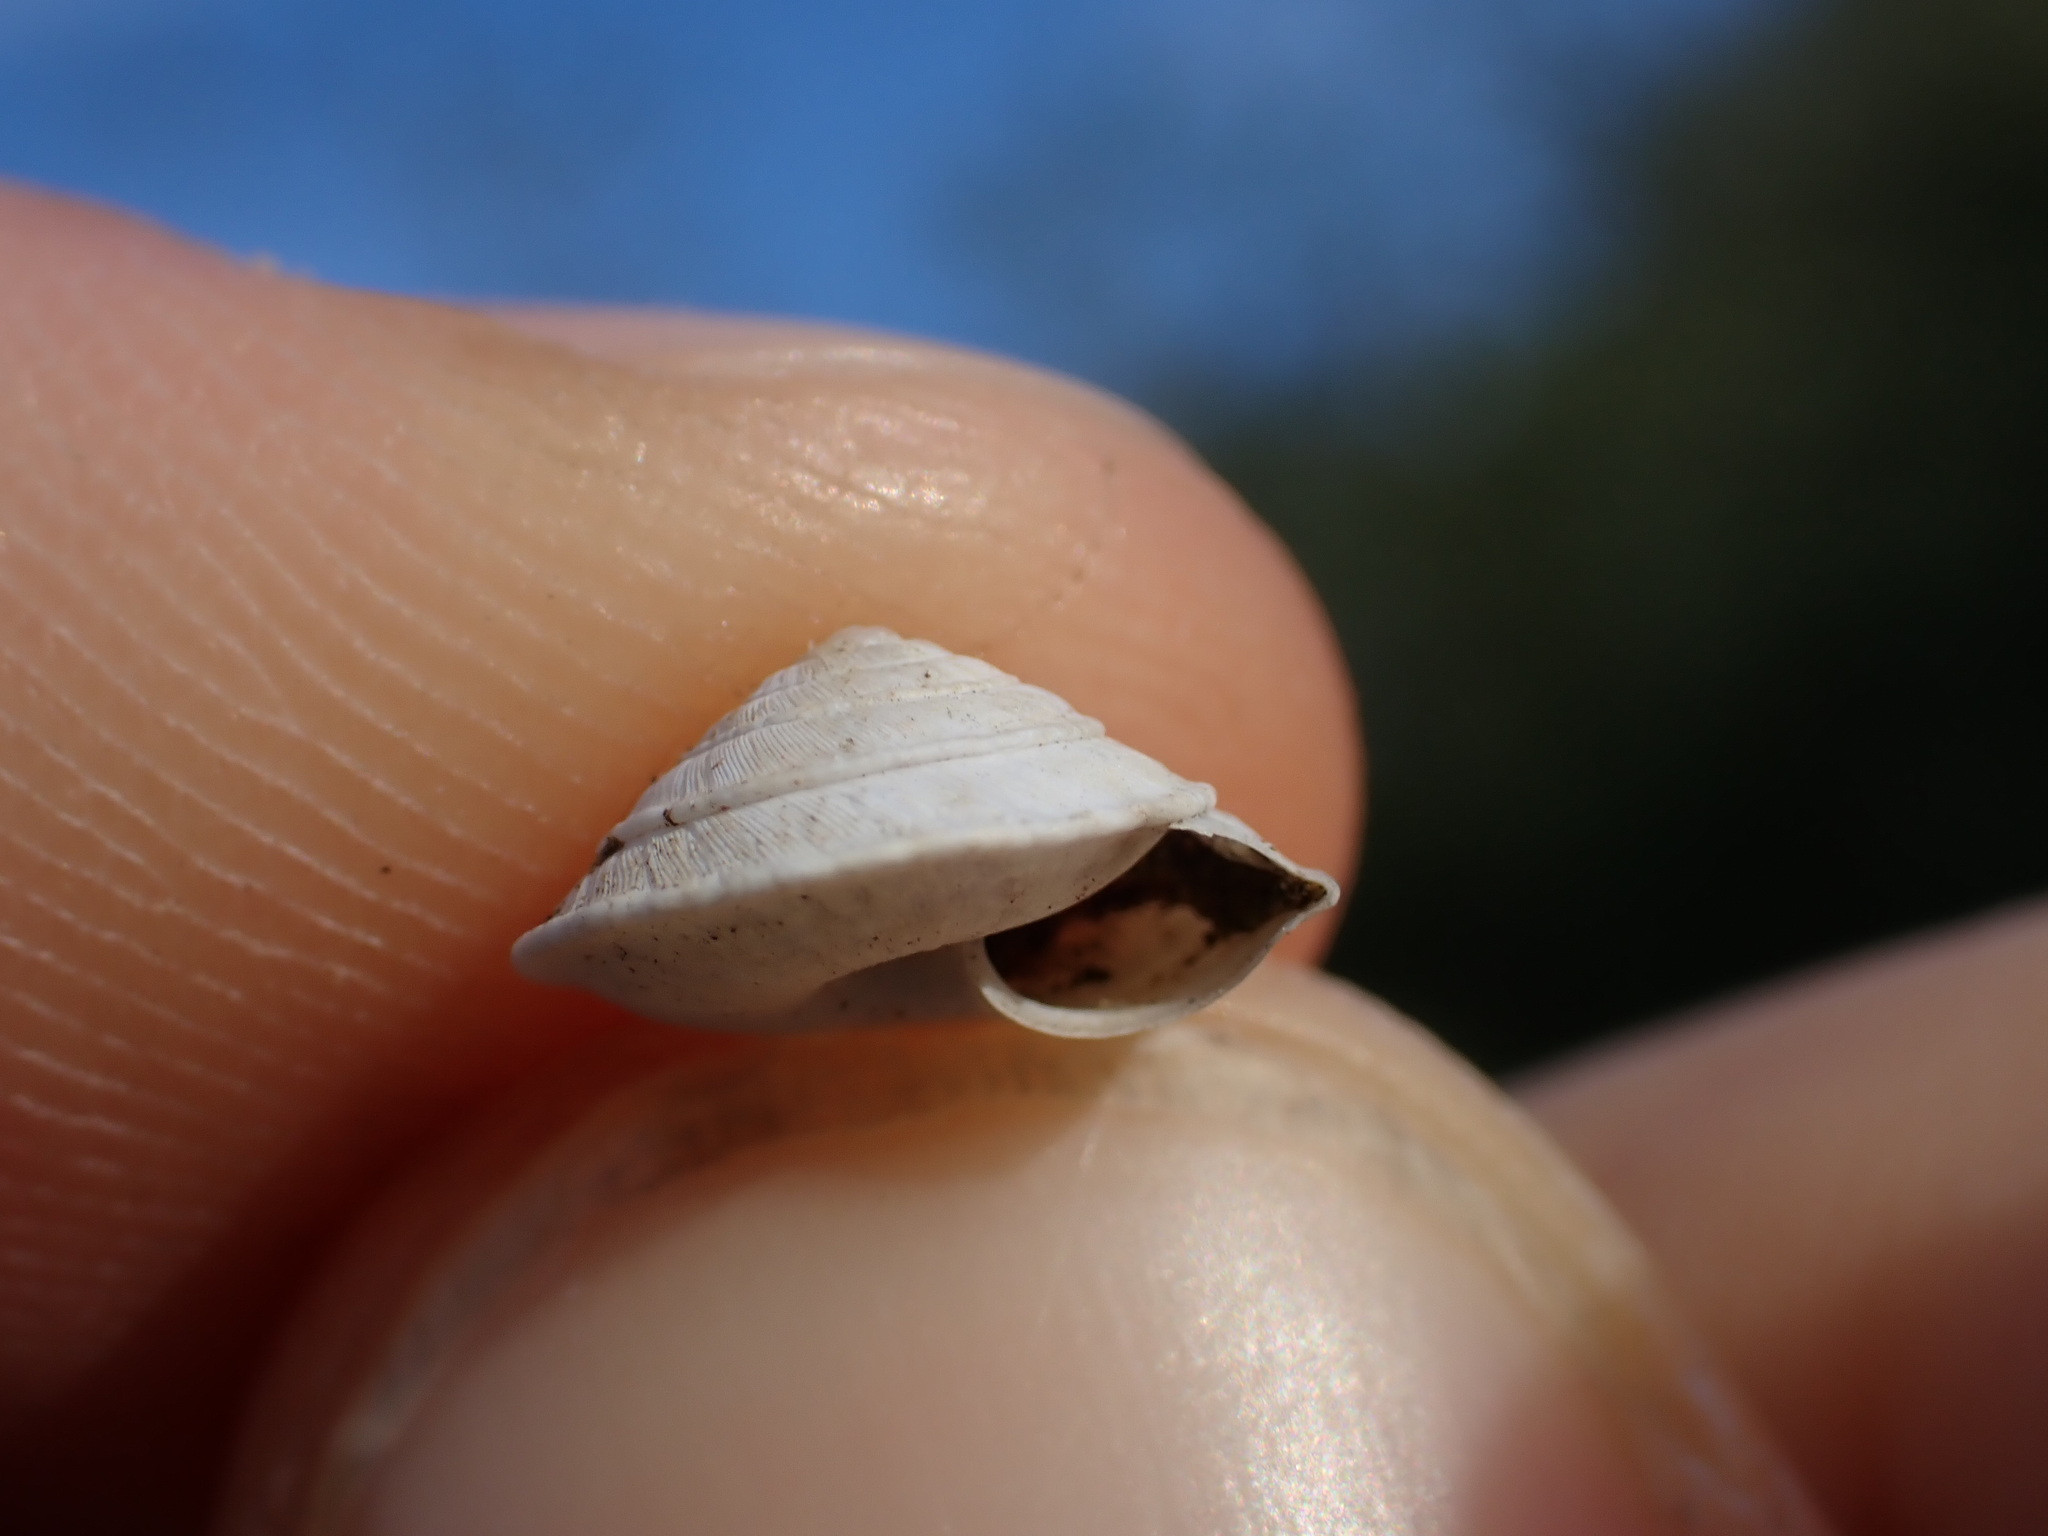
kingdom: Animalia
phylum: Mollusca
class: Gastropoda
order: Stylommatophora
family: Geomitridae
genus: Trochoidea
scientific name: Trochoidea elegans
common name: Elegant helicellid
